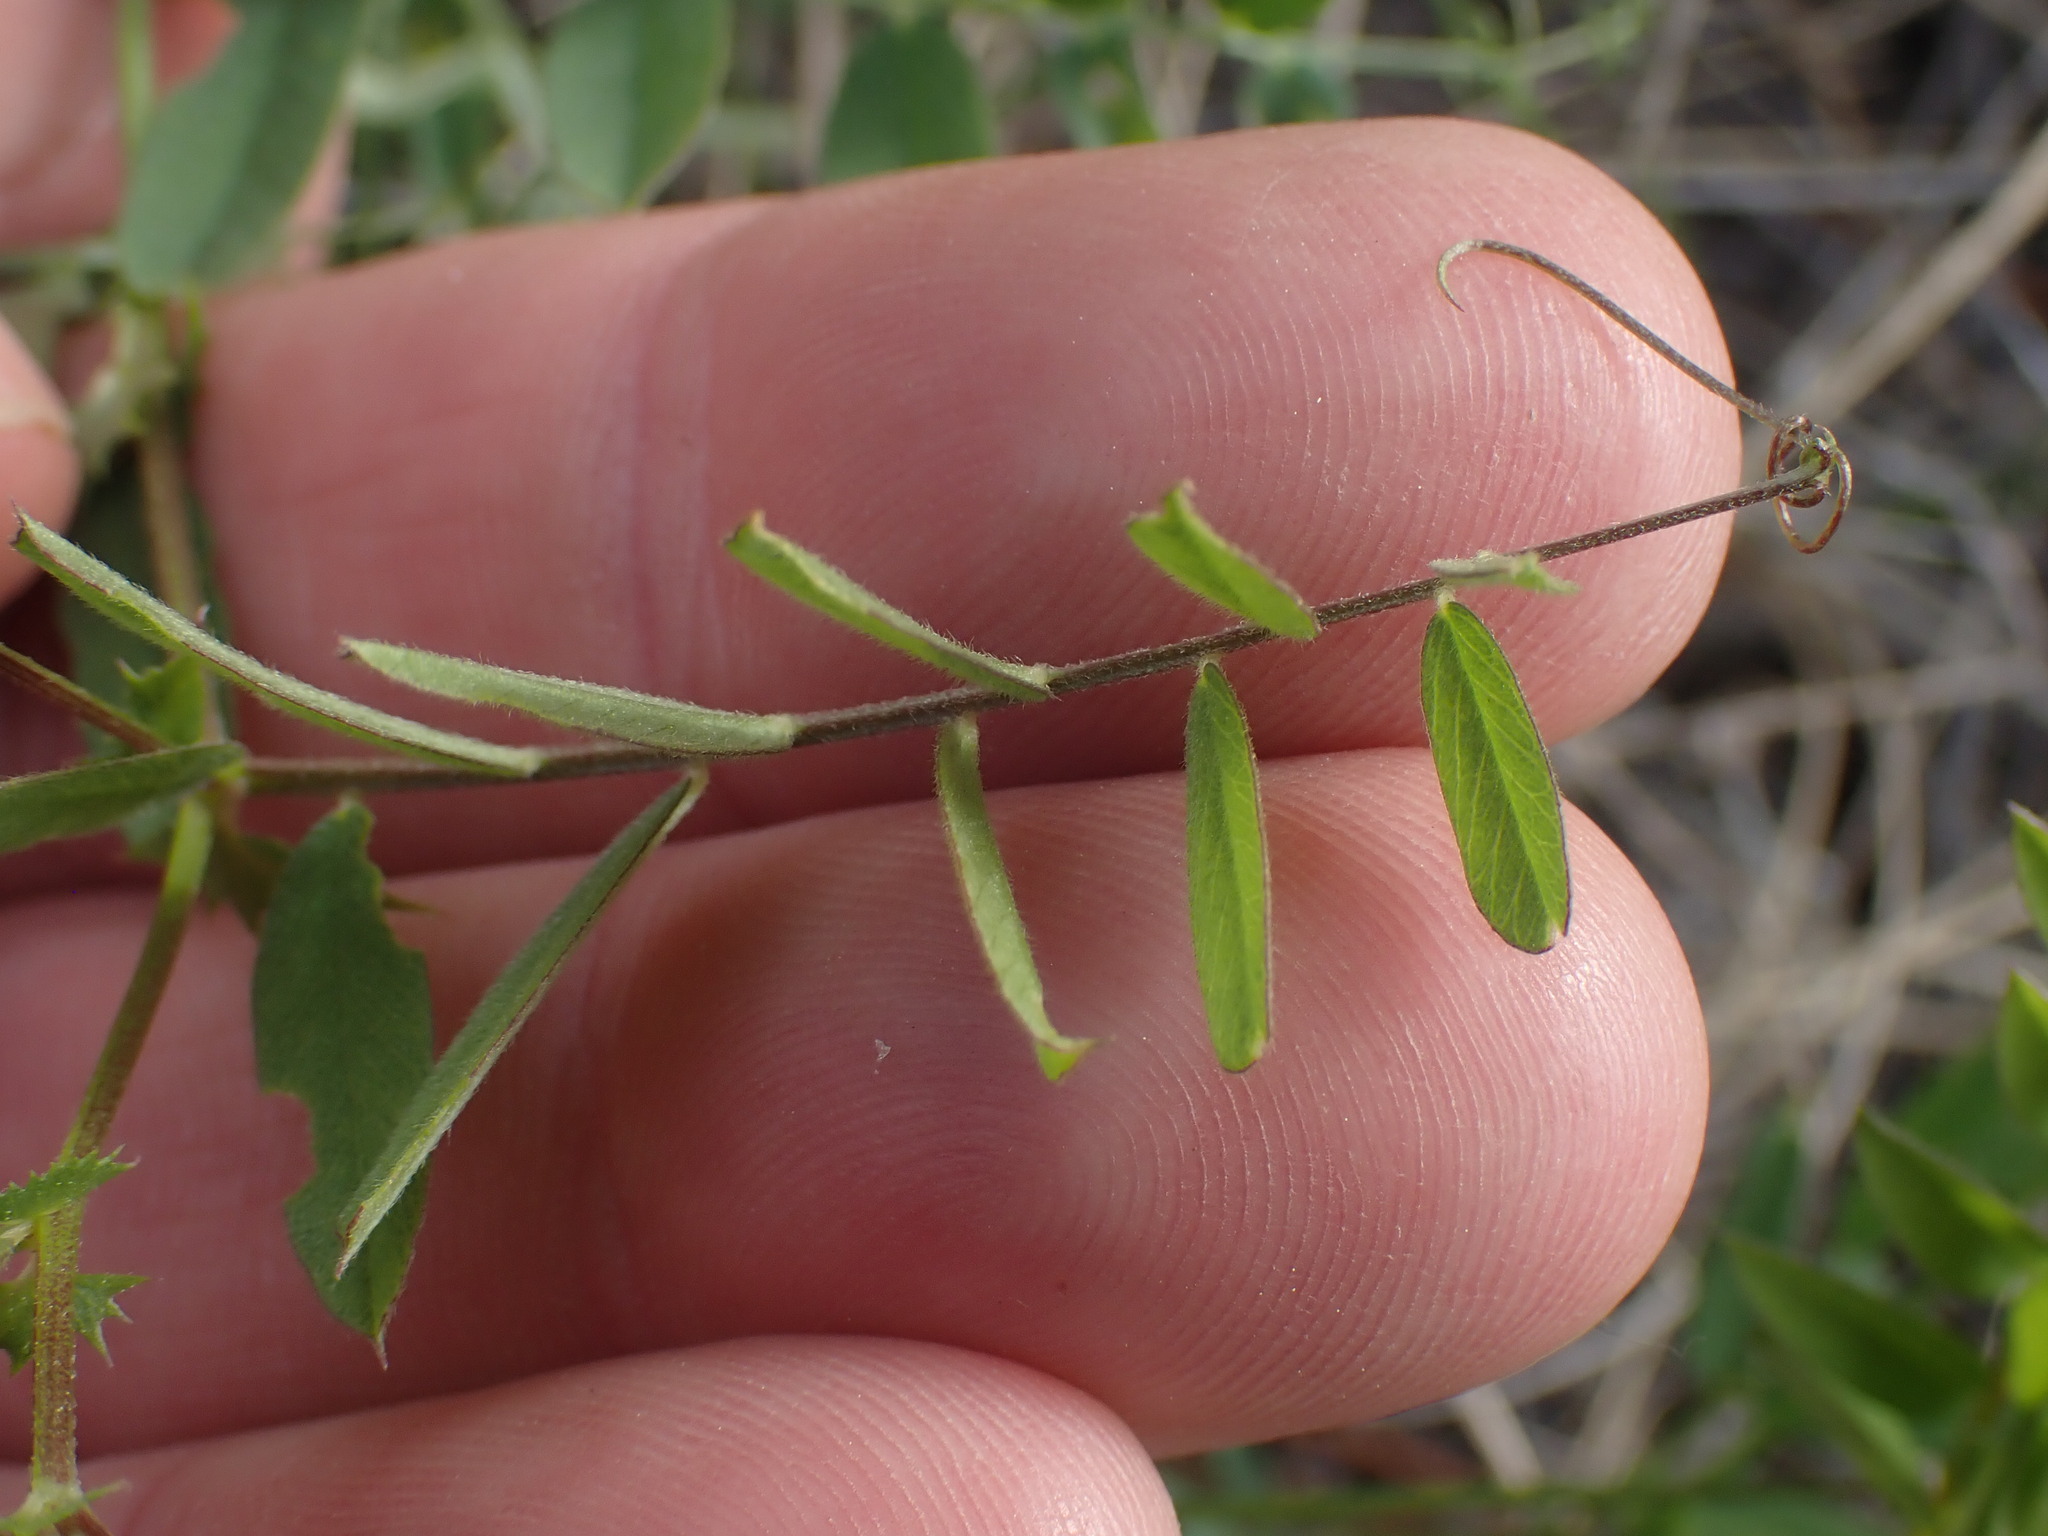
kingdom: Plantae
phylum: Tracheophyta
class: Magnoliopsida
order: Fabales
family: Fabaceae
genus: Vicia
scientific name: Vicia americana
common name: American vetch
